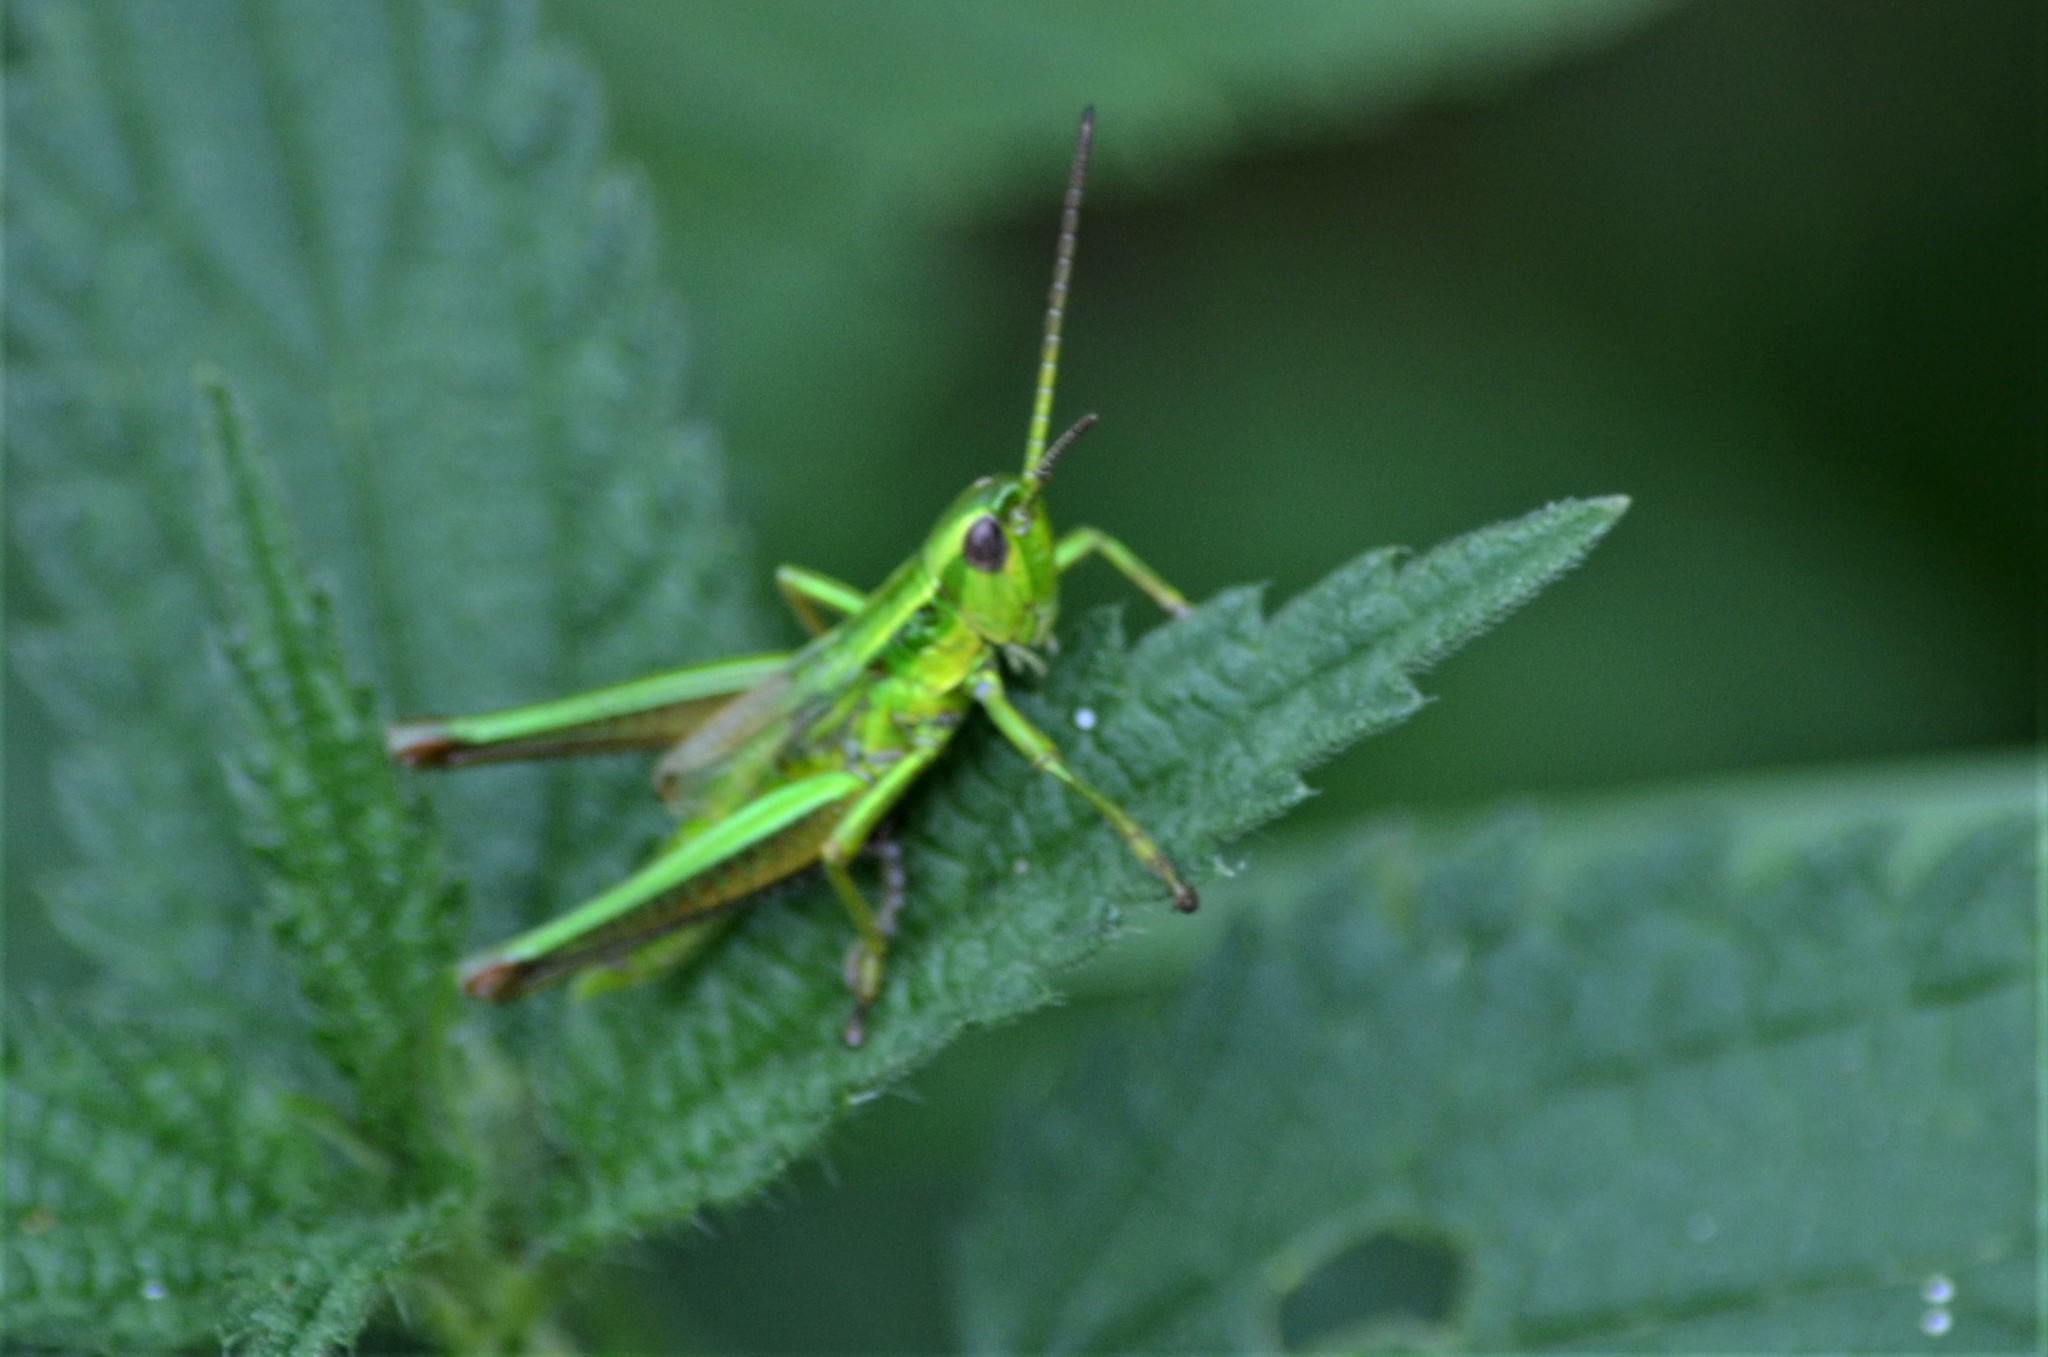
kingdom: Animalia
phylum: Arthropoda
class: Insecta
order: Orthoptera
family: Acrididae
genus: Euthystira
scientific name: Euthystira brachyptera
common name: Small gold grasshopper
